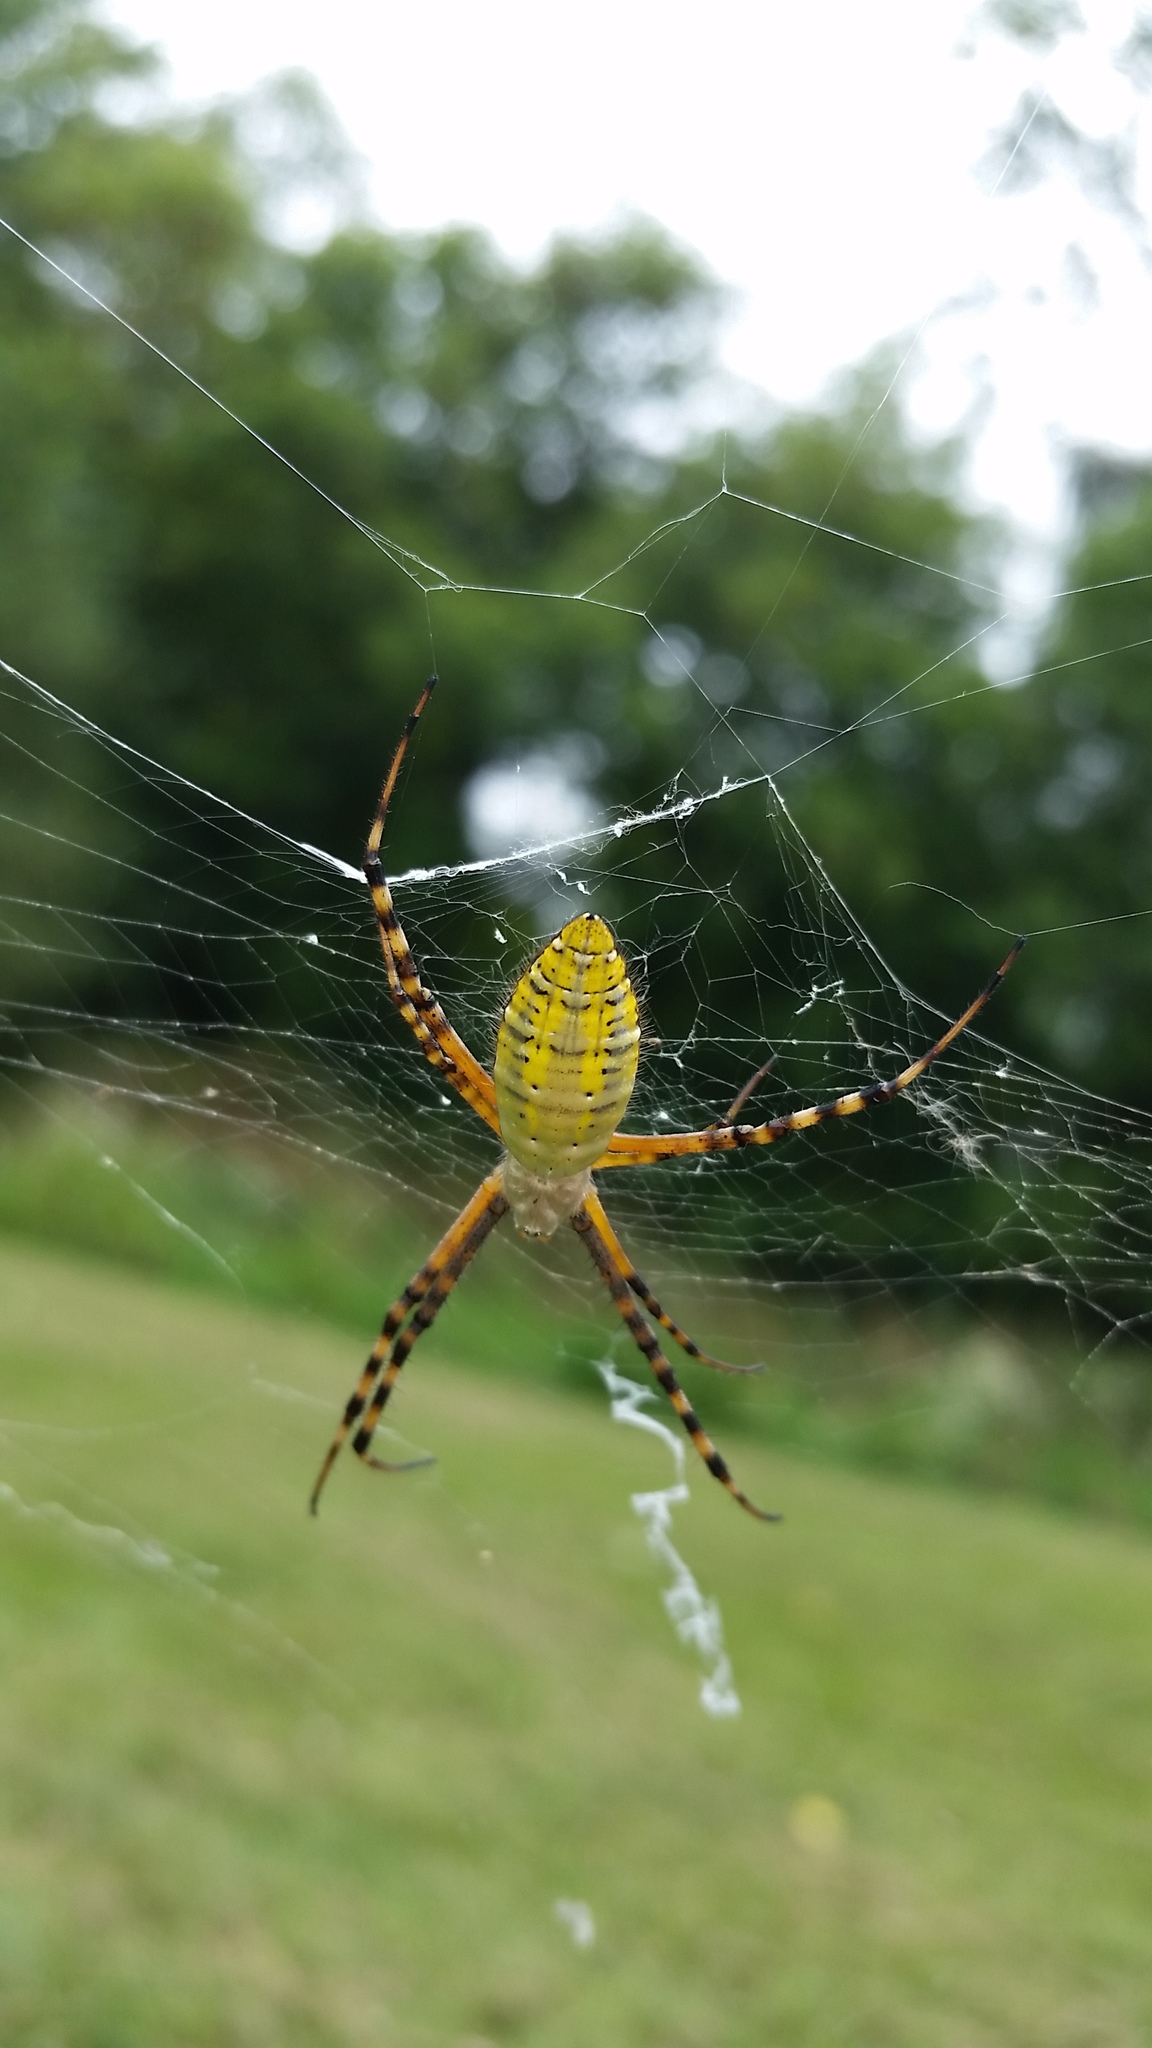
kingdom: Animalia
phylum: Arthropoda
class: Arachnida
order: Araneae
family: Araneidae
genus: Argiope
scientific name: Argiope trifasciata
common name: Banded garden spider
